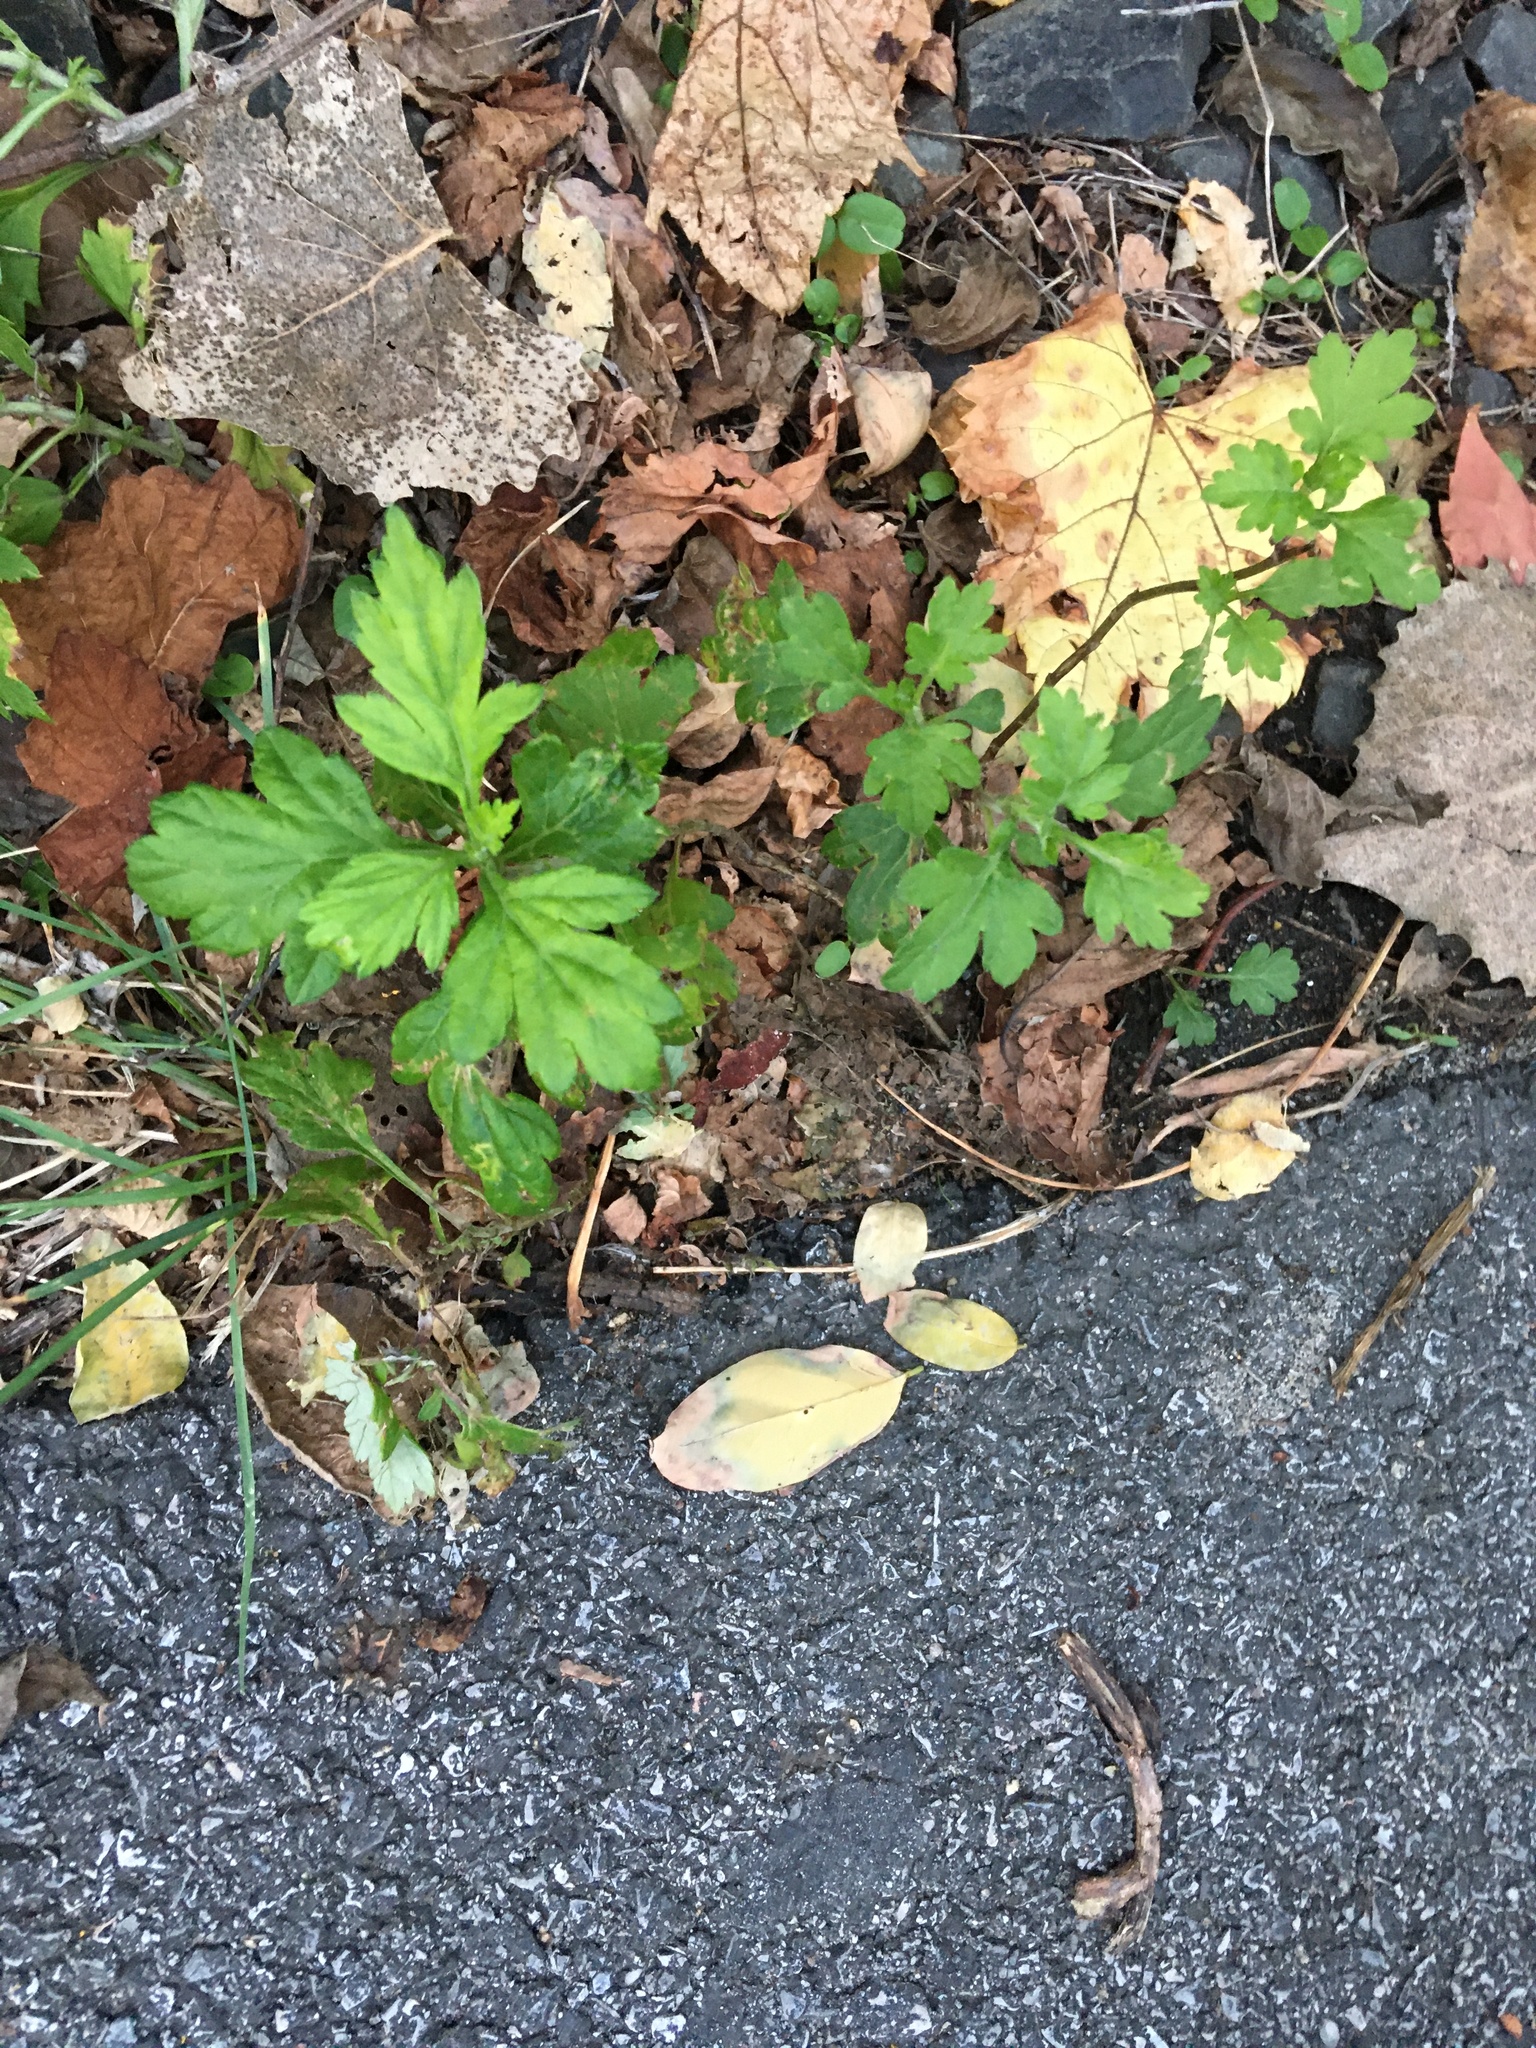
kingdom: Plantae
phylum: Tracheophyta
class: Magnoliopsida
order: Asterales
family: Asteraceae
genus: Artemisia
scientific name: Artemisia vulgaris
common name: Mugwort
